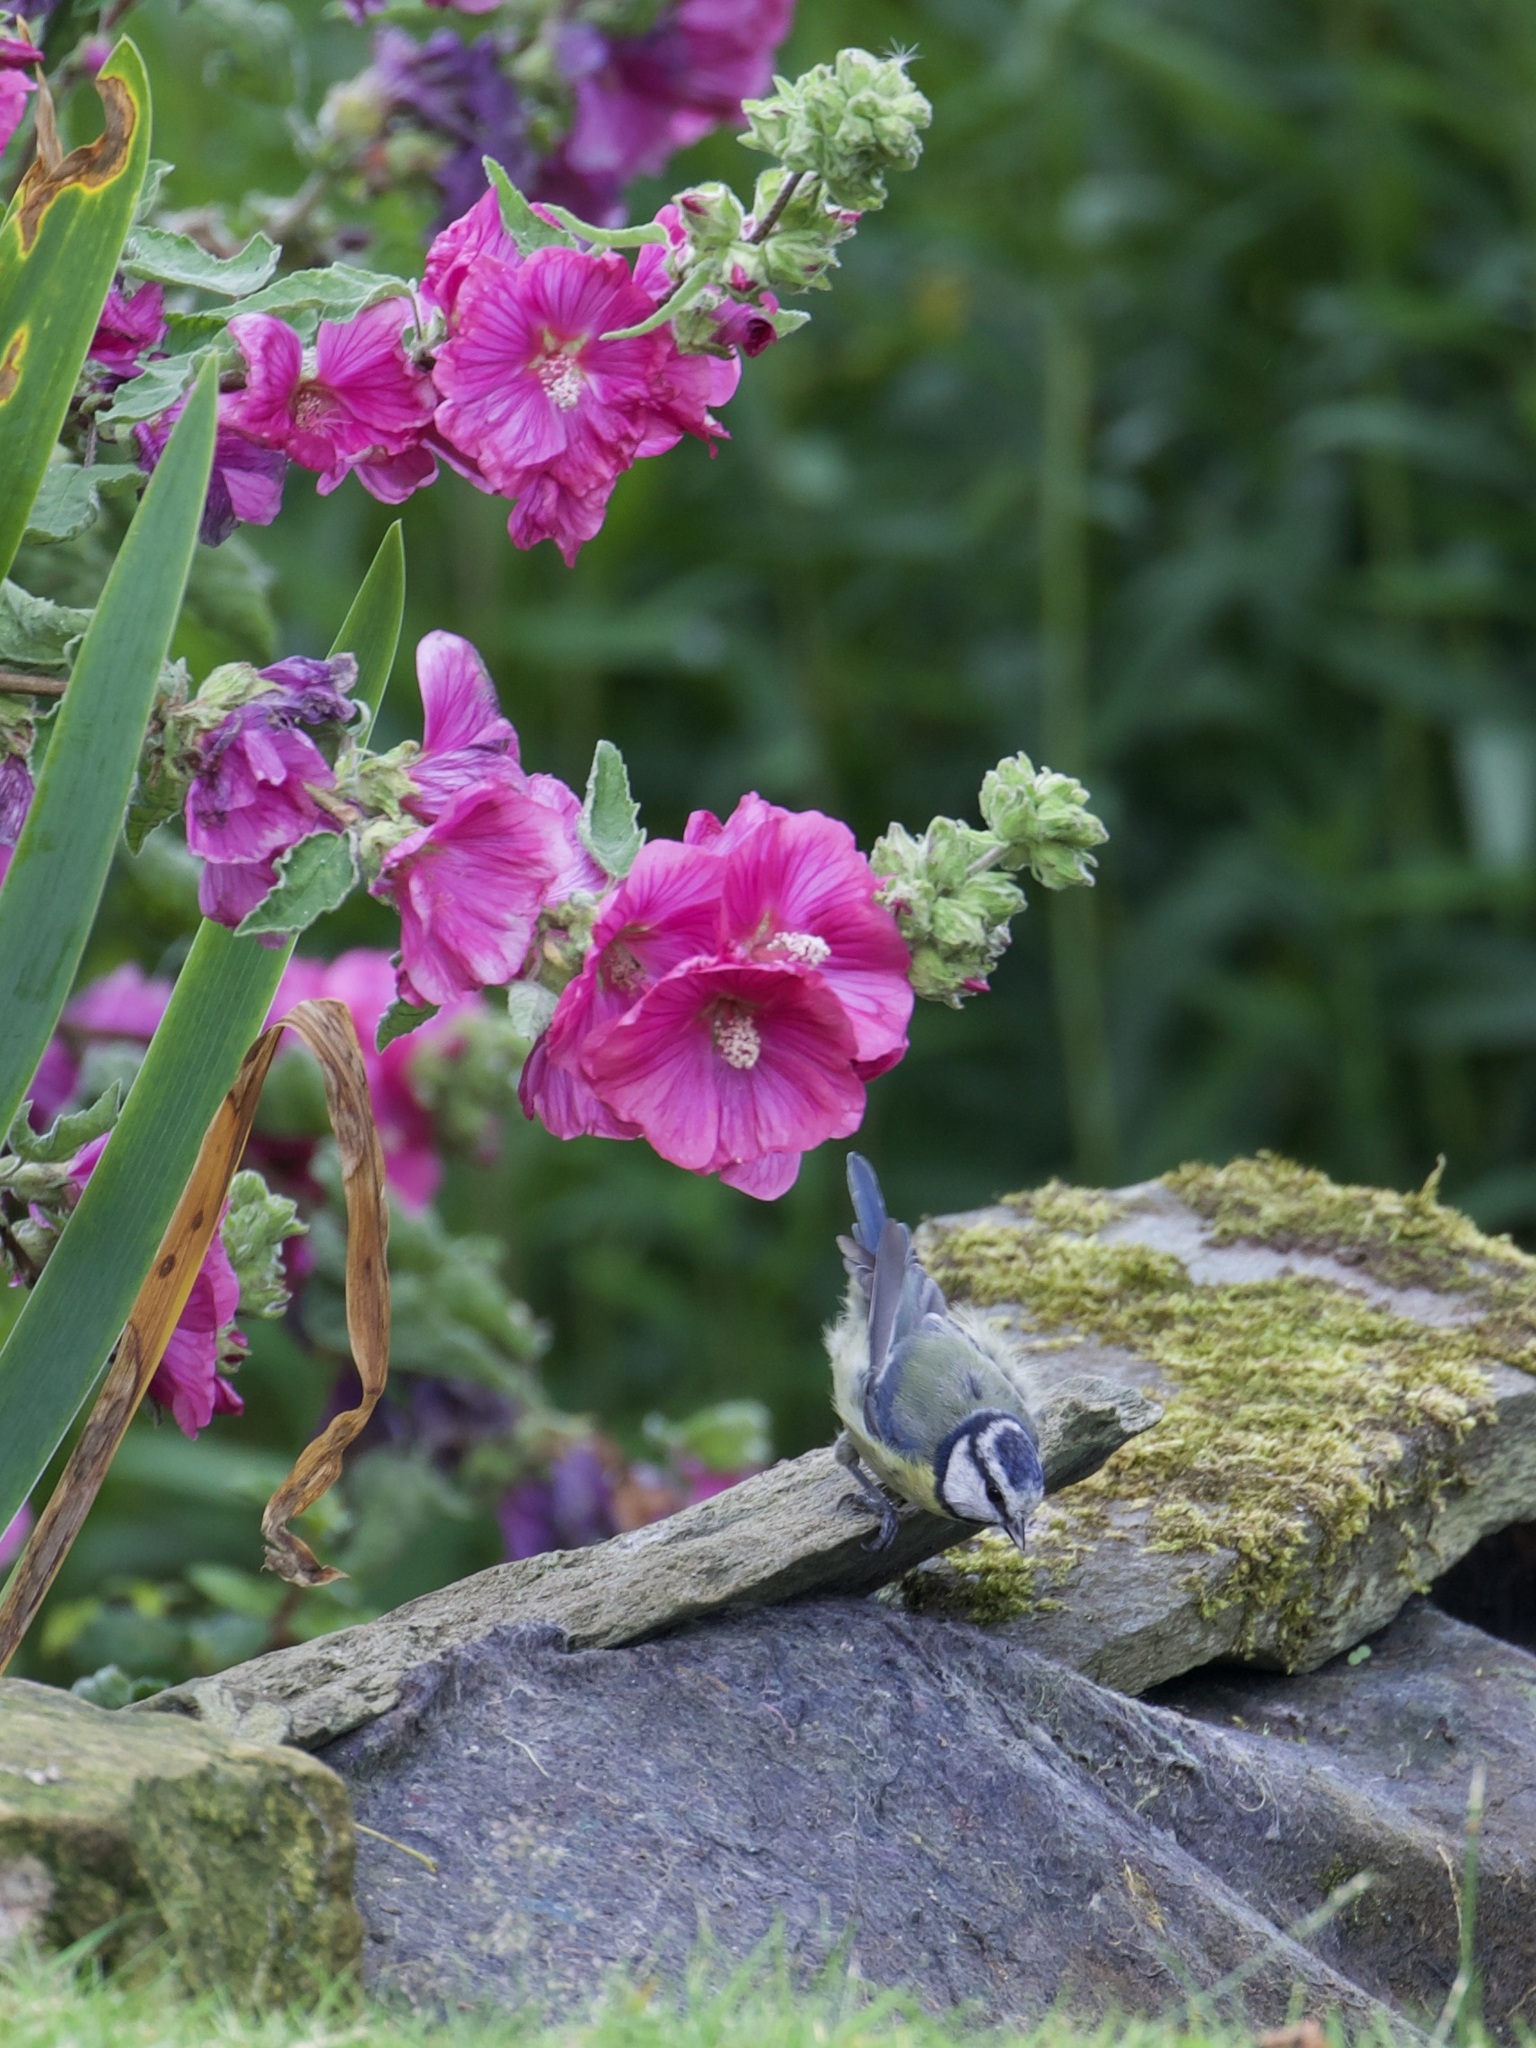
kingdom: Animalia
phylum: Chordata
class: Aves
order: Passeriformes
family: Paridae
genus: Cyanistes
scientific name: Cyanistes caeruleus
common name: Eurasian blue tit
